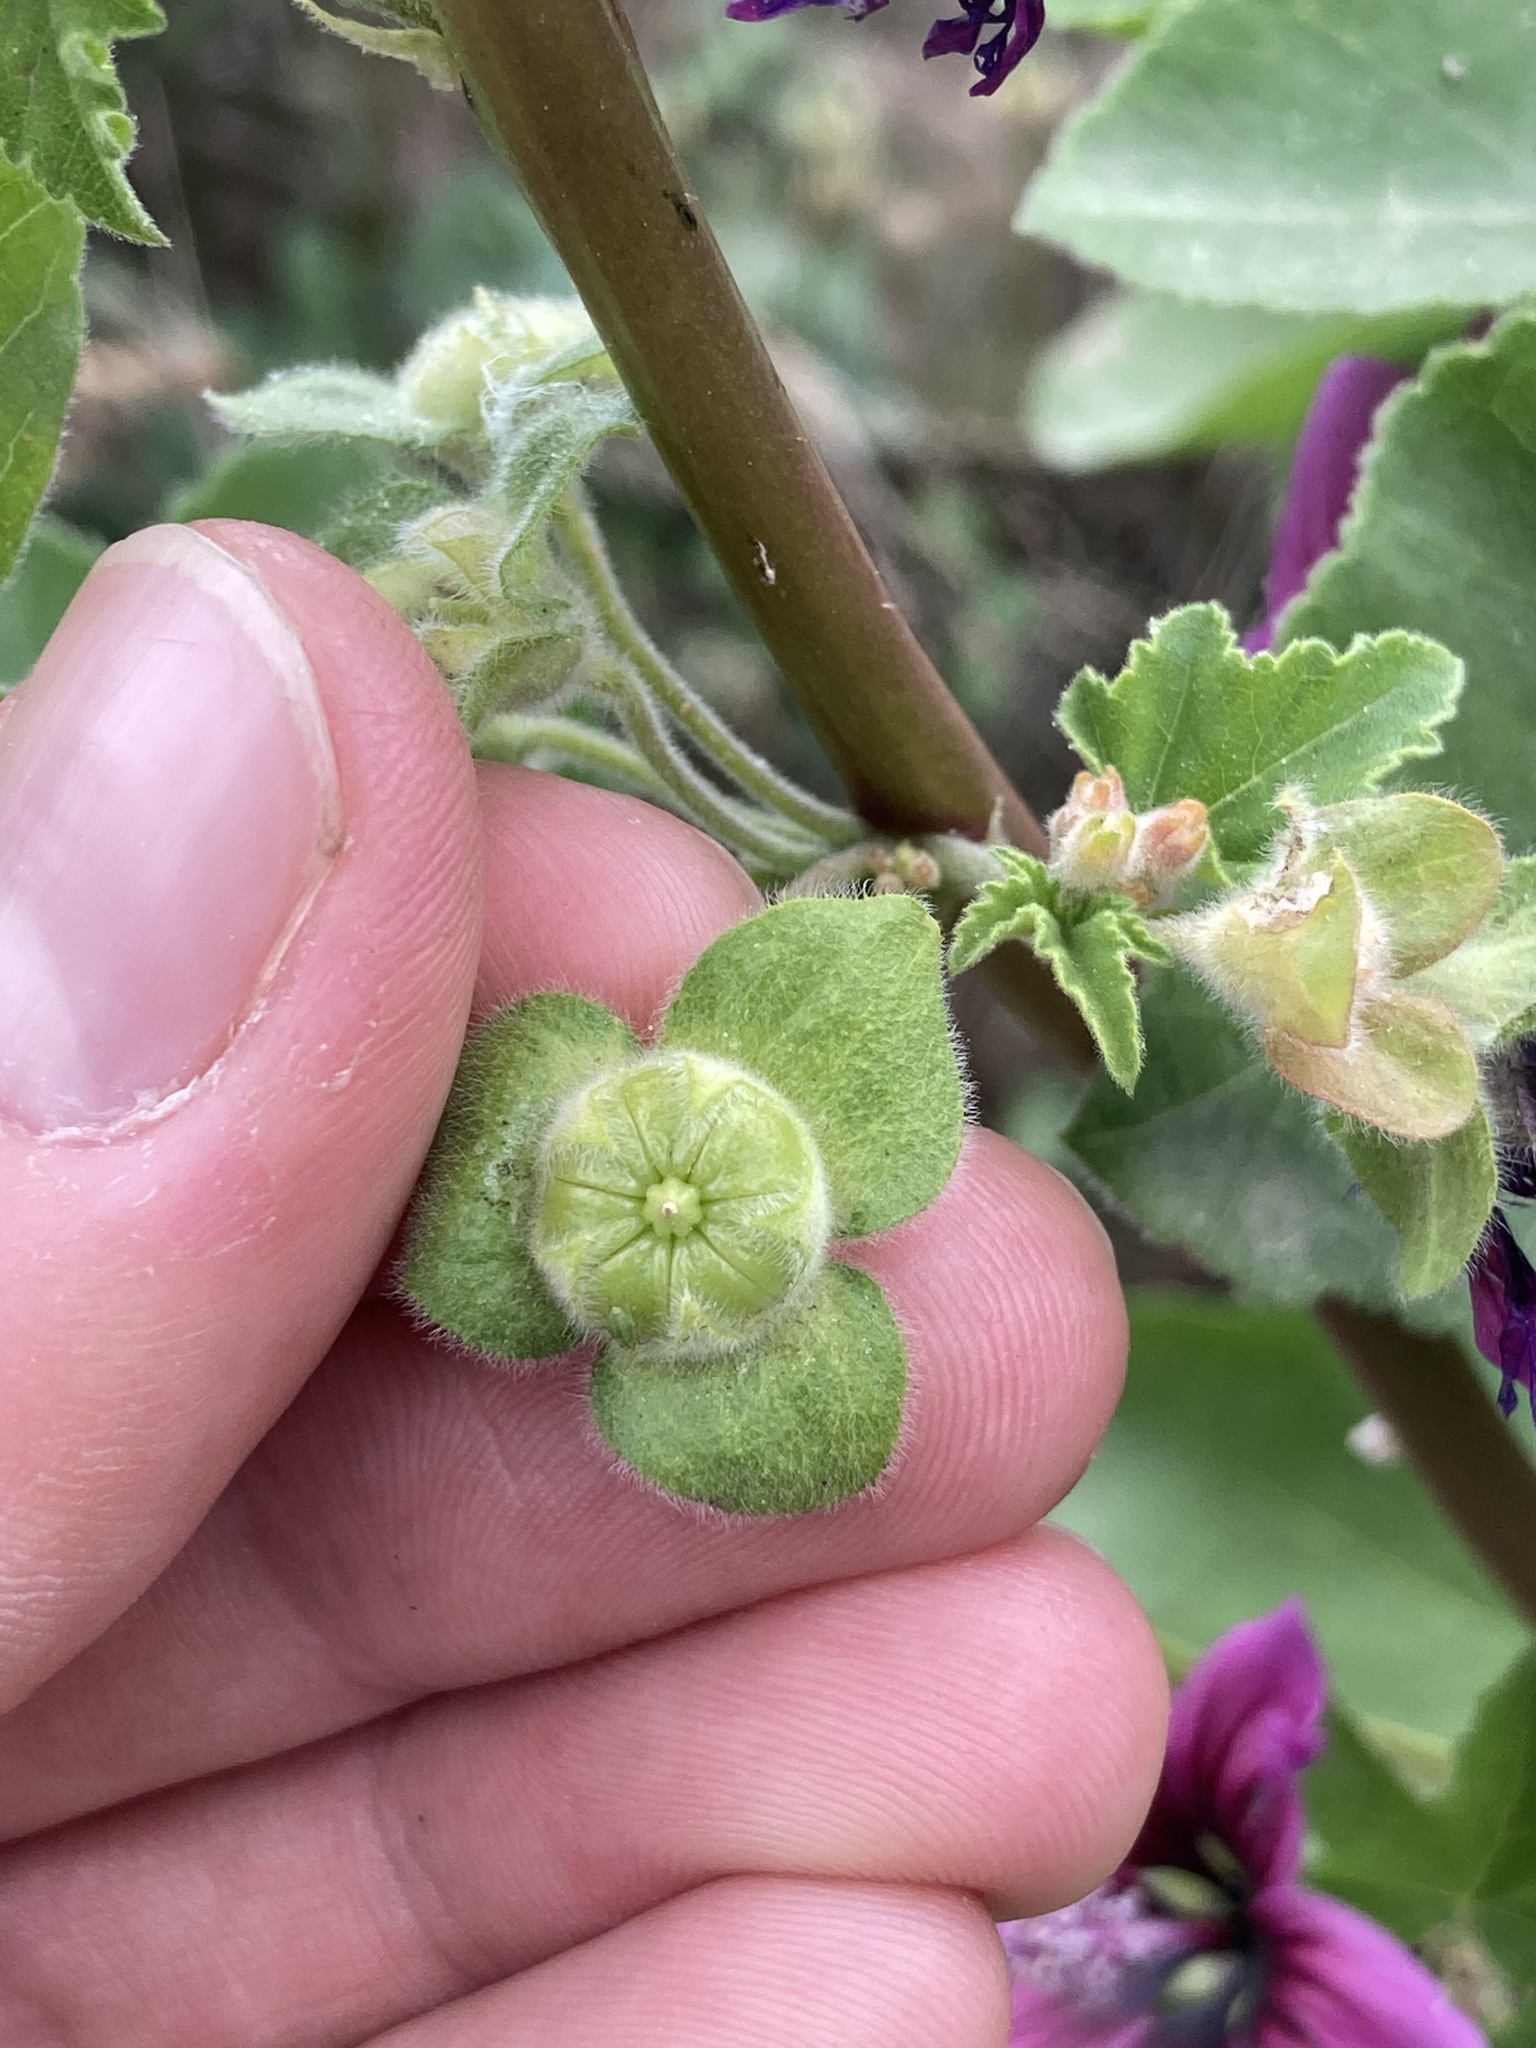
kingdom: Plantae
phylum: Tracheophyta
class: Magnoliopsida
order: Malvales
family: Malvaceae
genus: Malva
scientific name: Malva arborea
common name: Tree mallow
